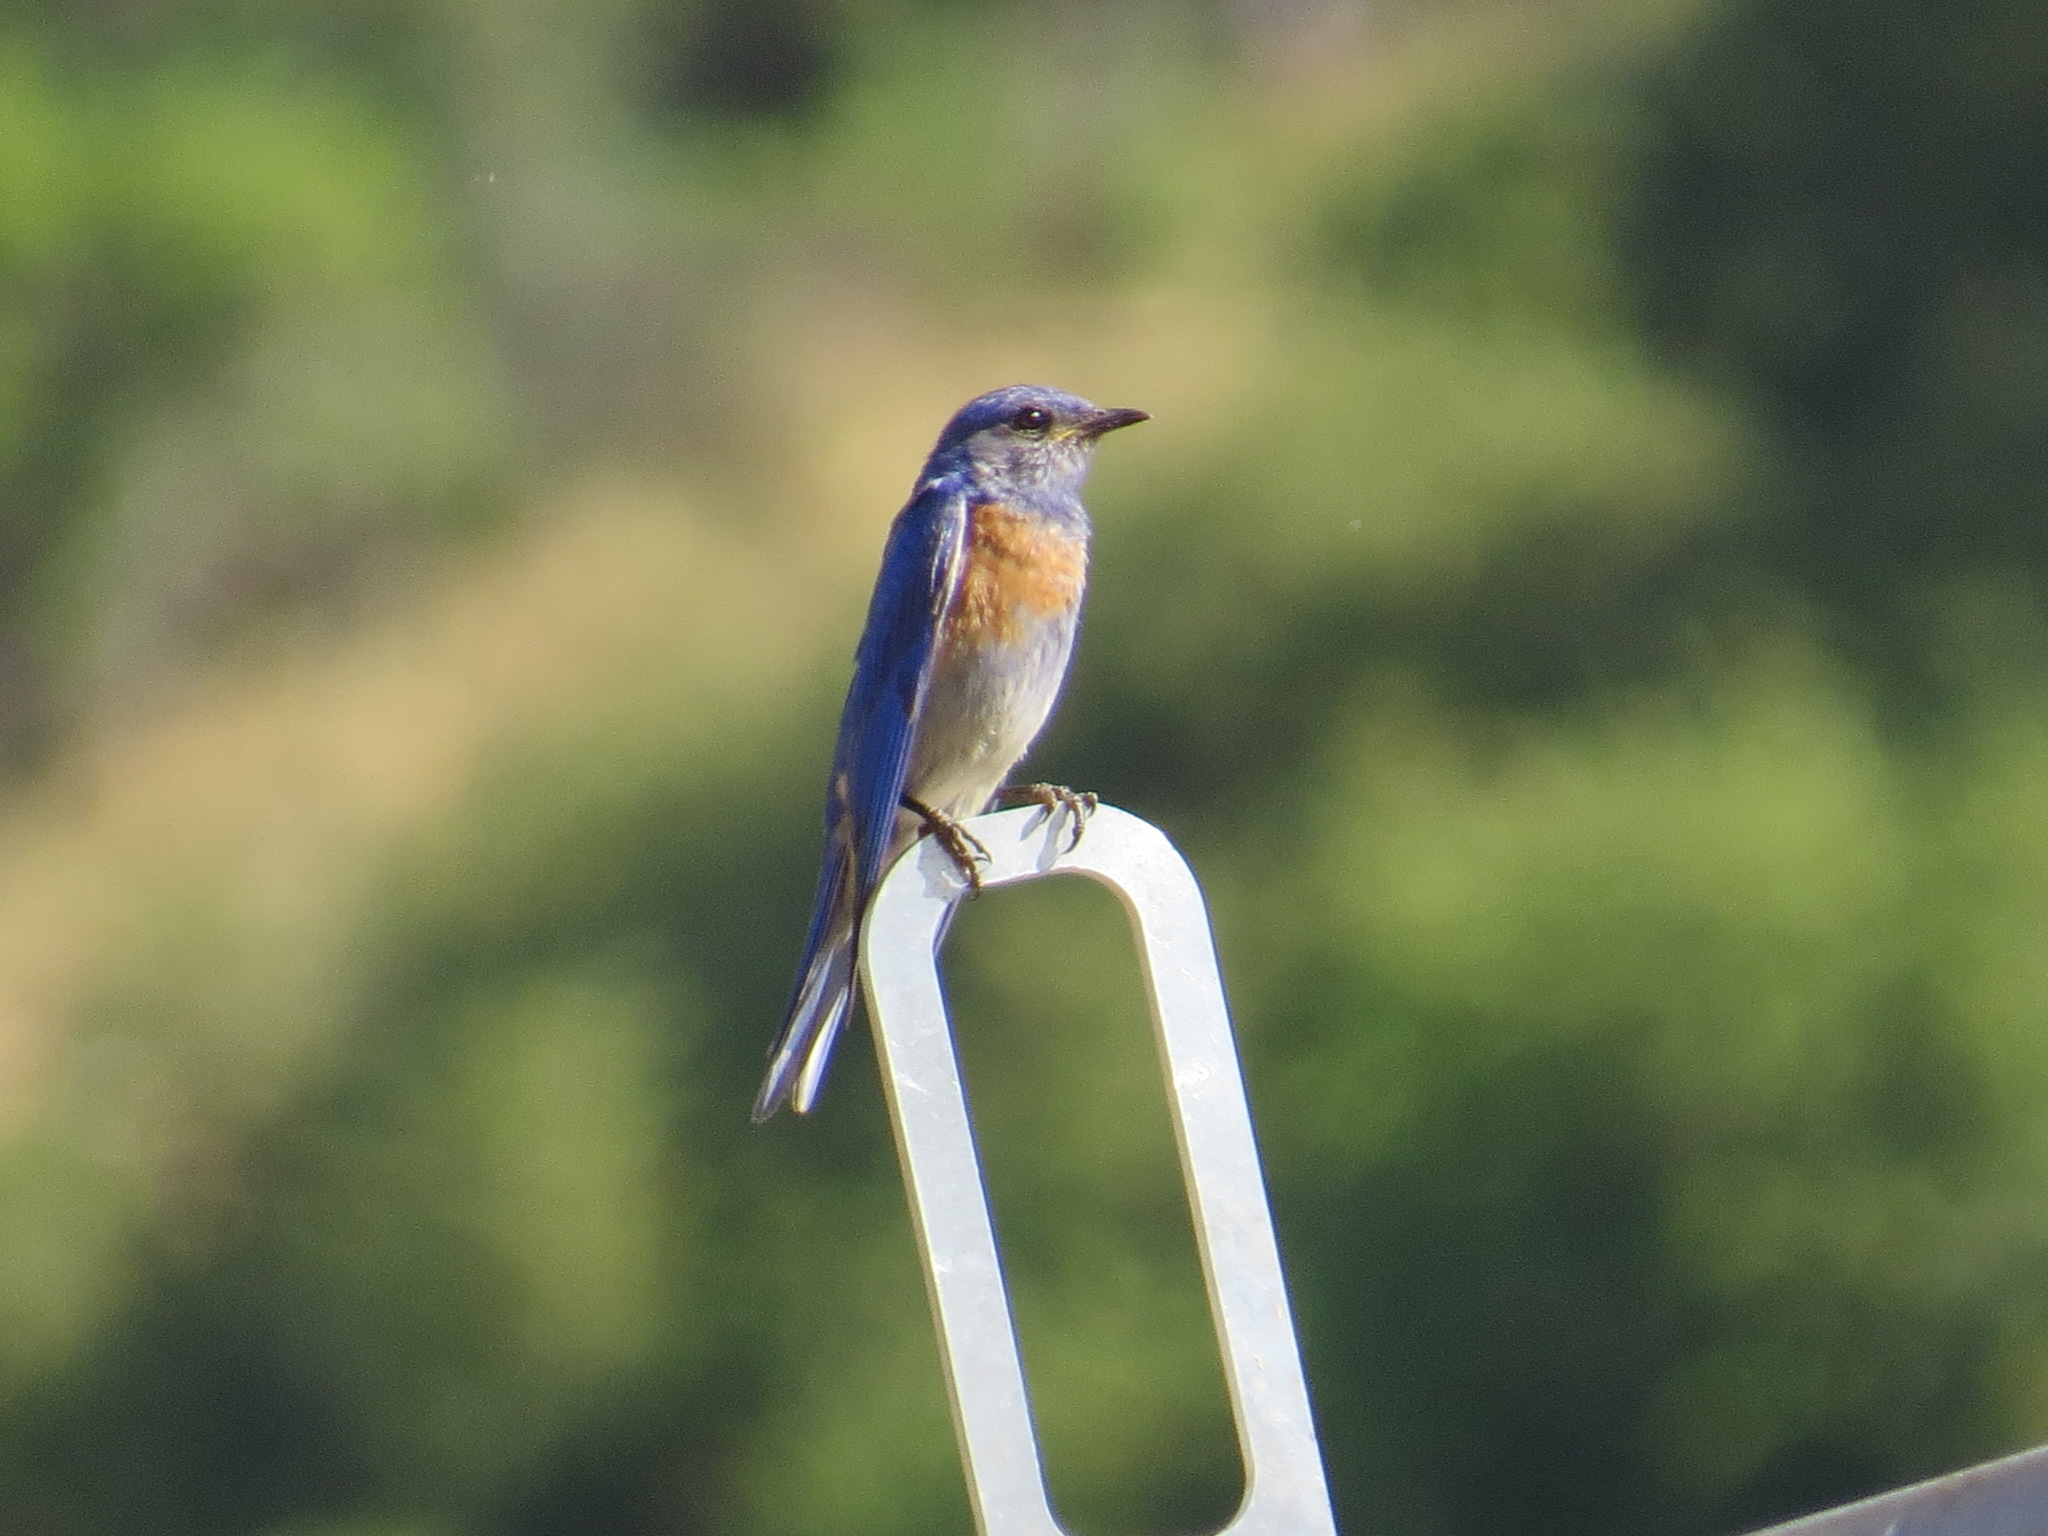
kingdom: Animalia
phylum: Chordata
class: Aves
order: Passeriformes
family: Turdidae
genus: Sialia
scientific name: Sialia mexicana
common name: Western bluebird
